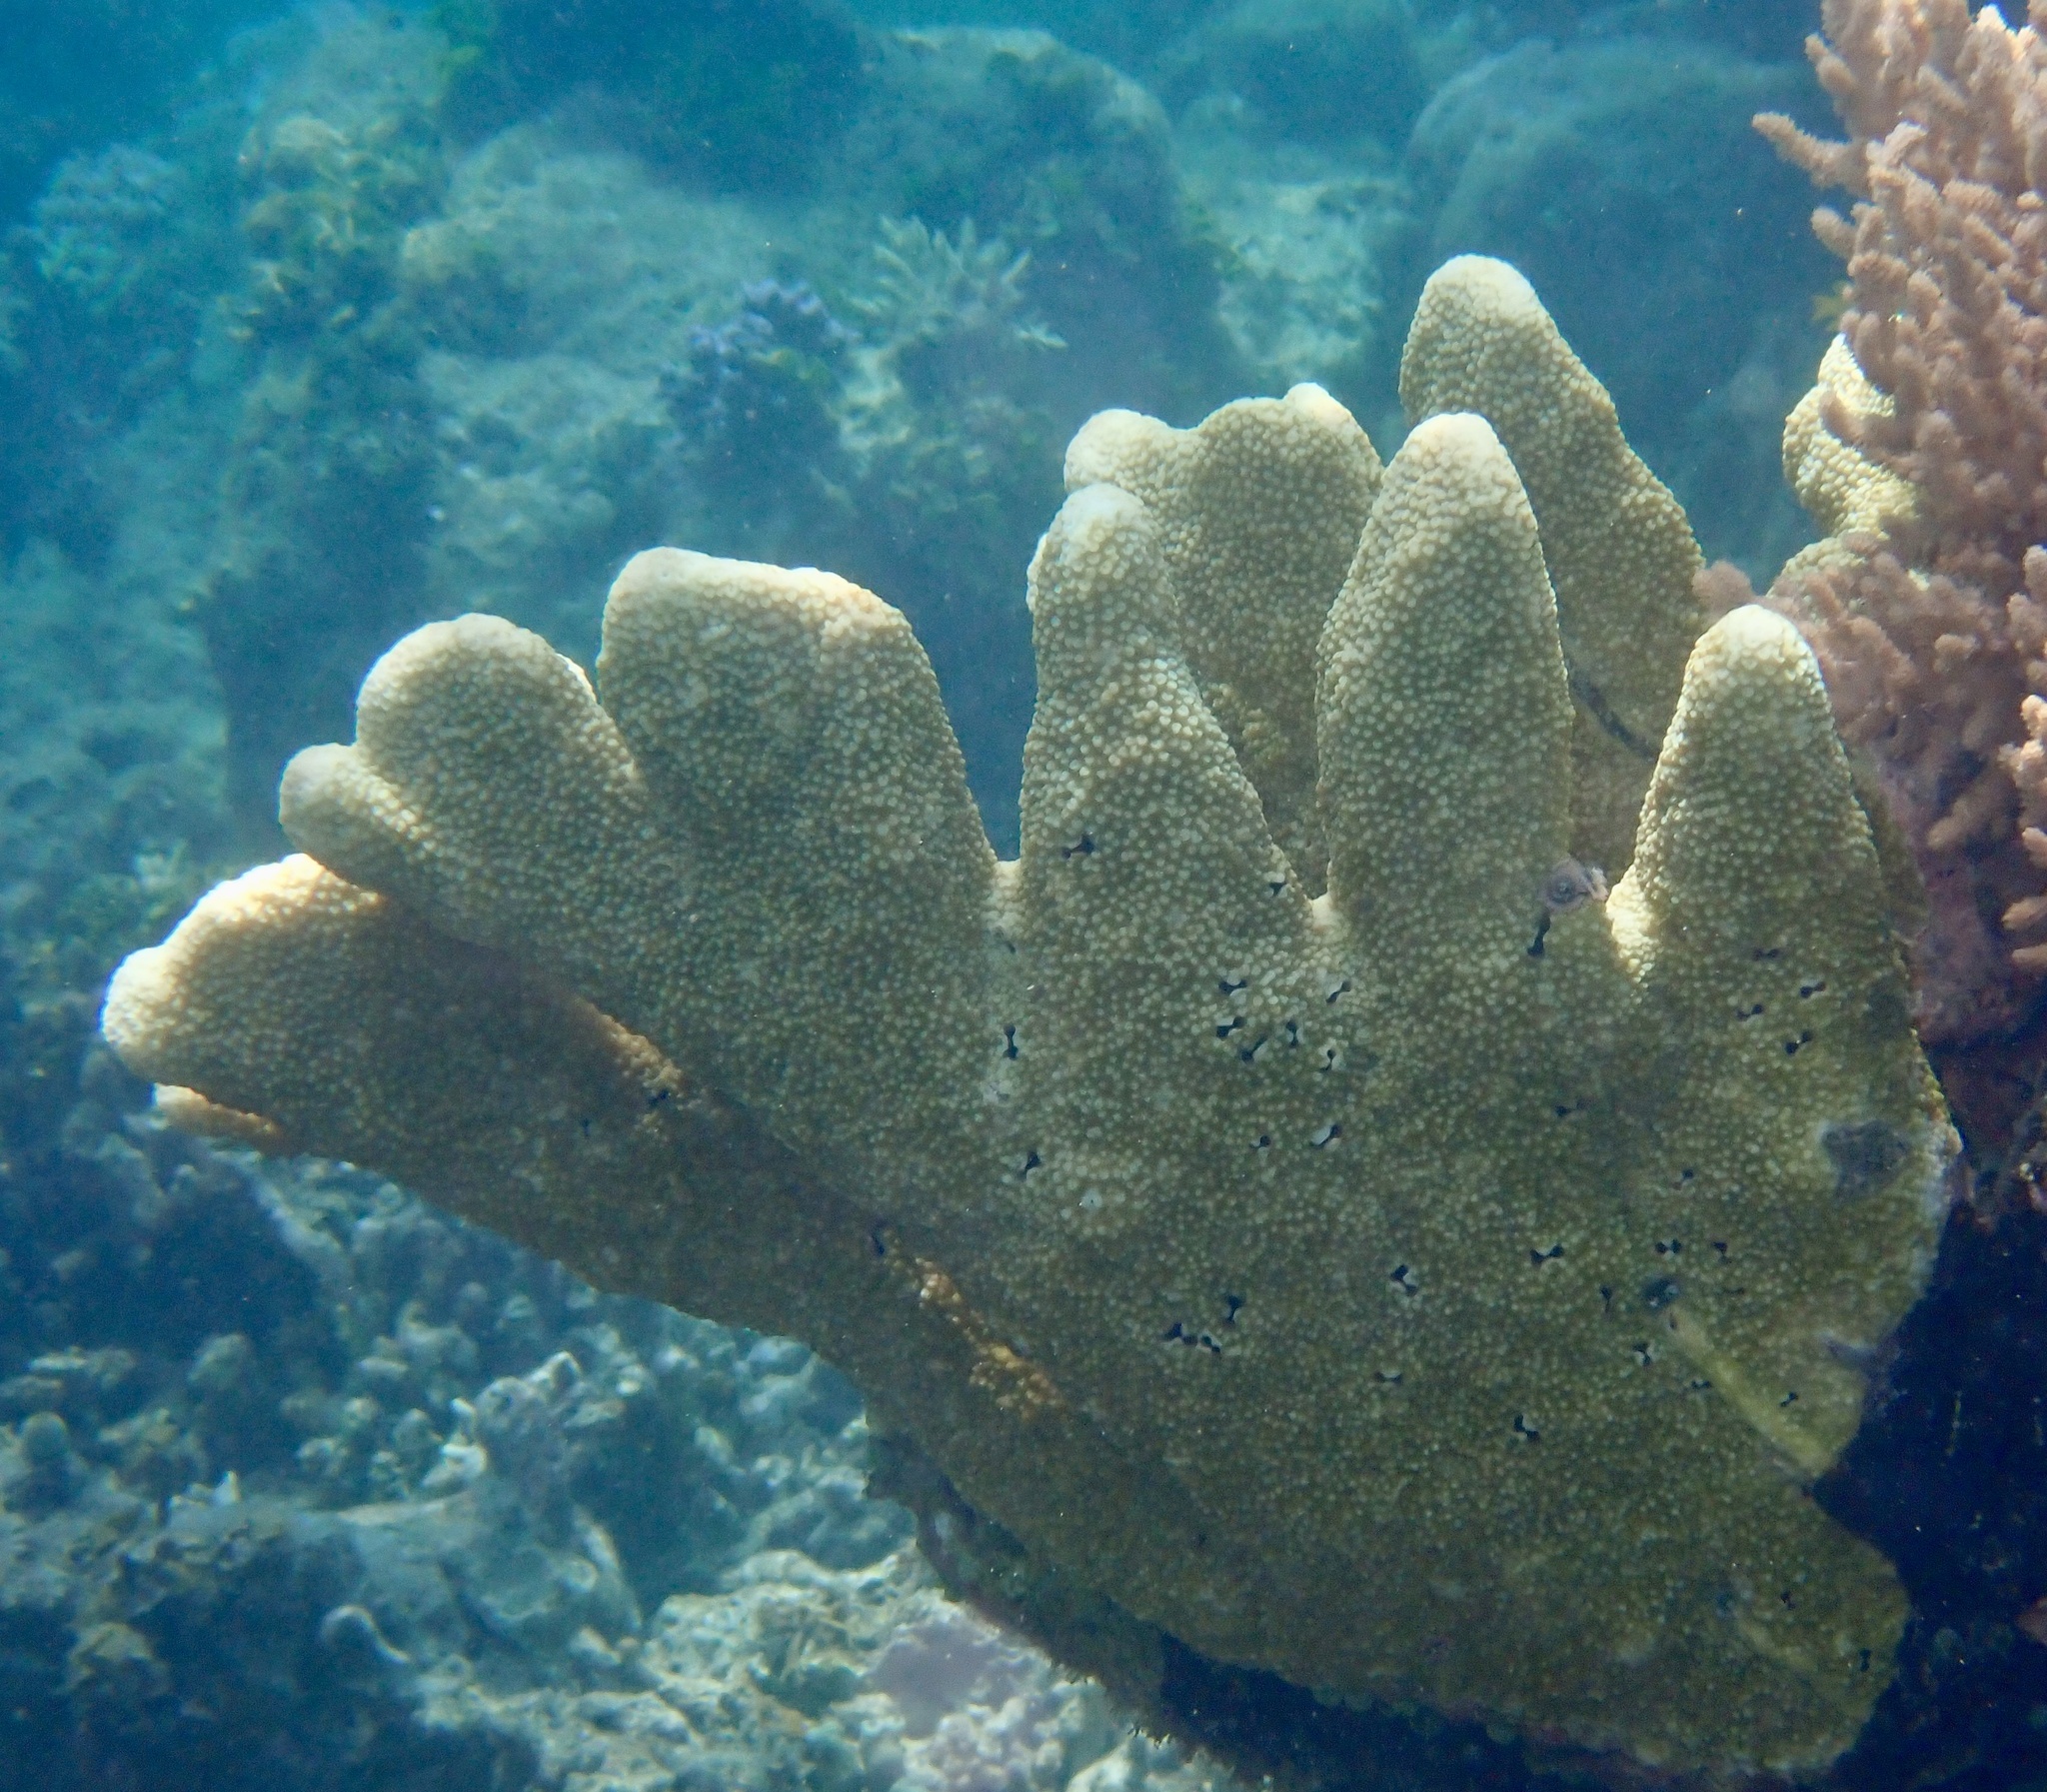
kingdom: Animalia
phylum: Cnidaria
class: Anthozoa
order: Scleractinia
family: Acroporidae
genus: Isopora
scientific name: Isopora palifera
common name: Catch bowl coral
